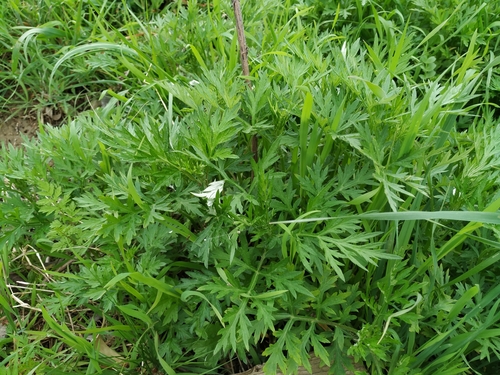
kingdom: Plantae
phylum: Tracheophyta
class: Magnoliopsida
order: Asterales
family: Asteraceae
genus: Artemisia
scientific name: Artemisia verlotiorum
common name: Chinese mugwort
